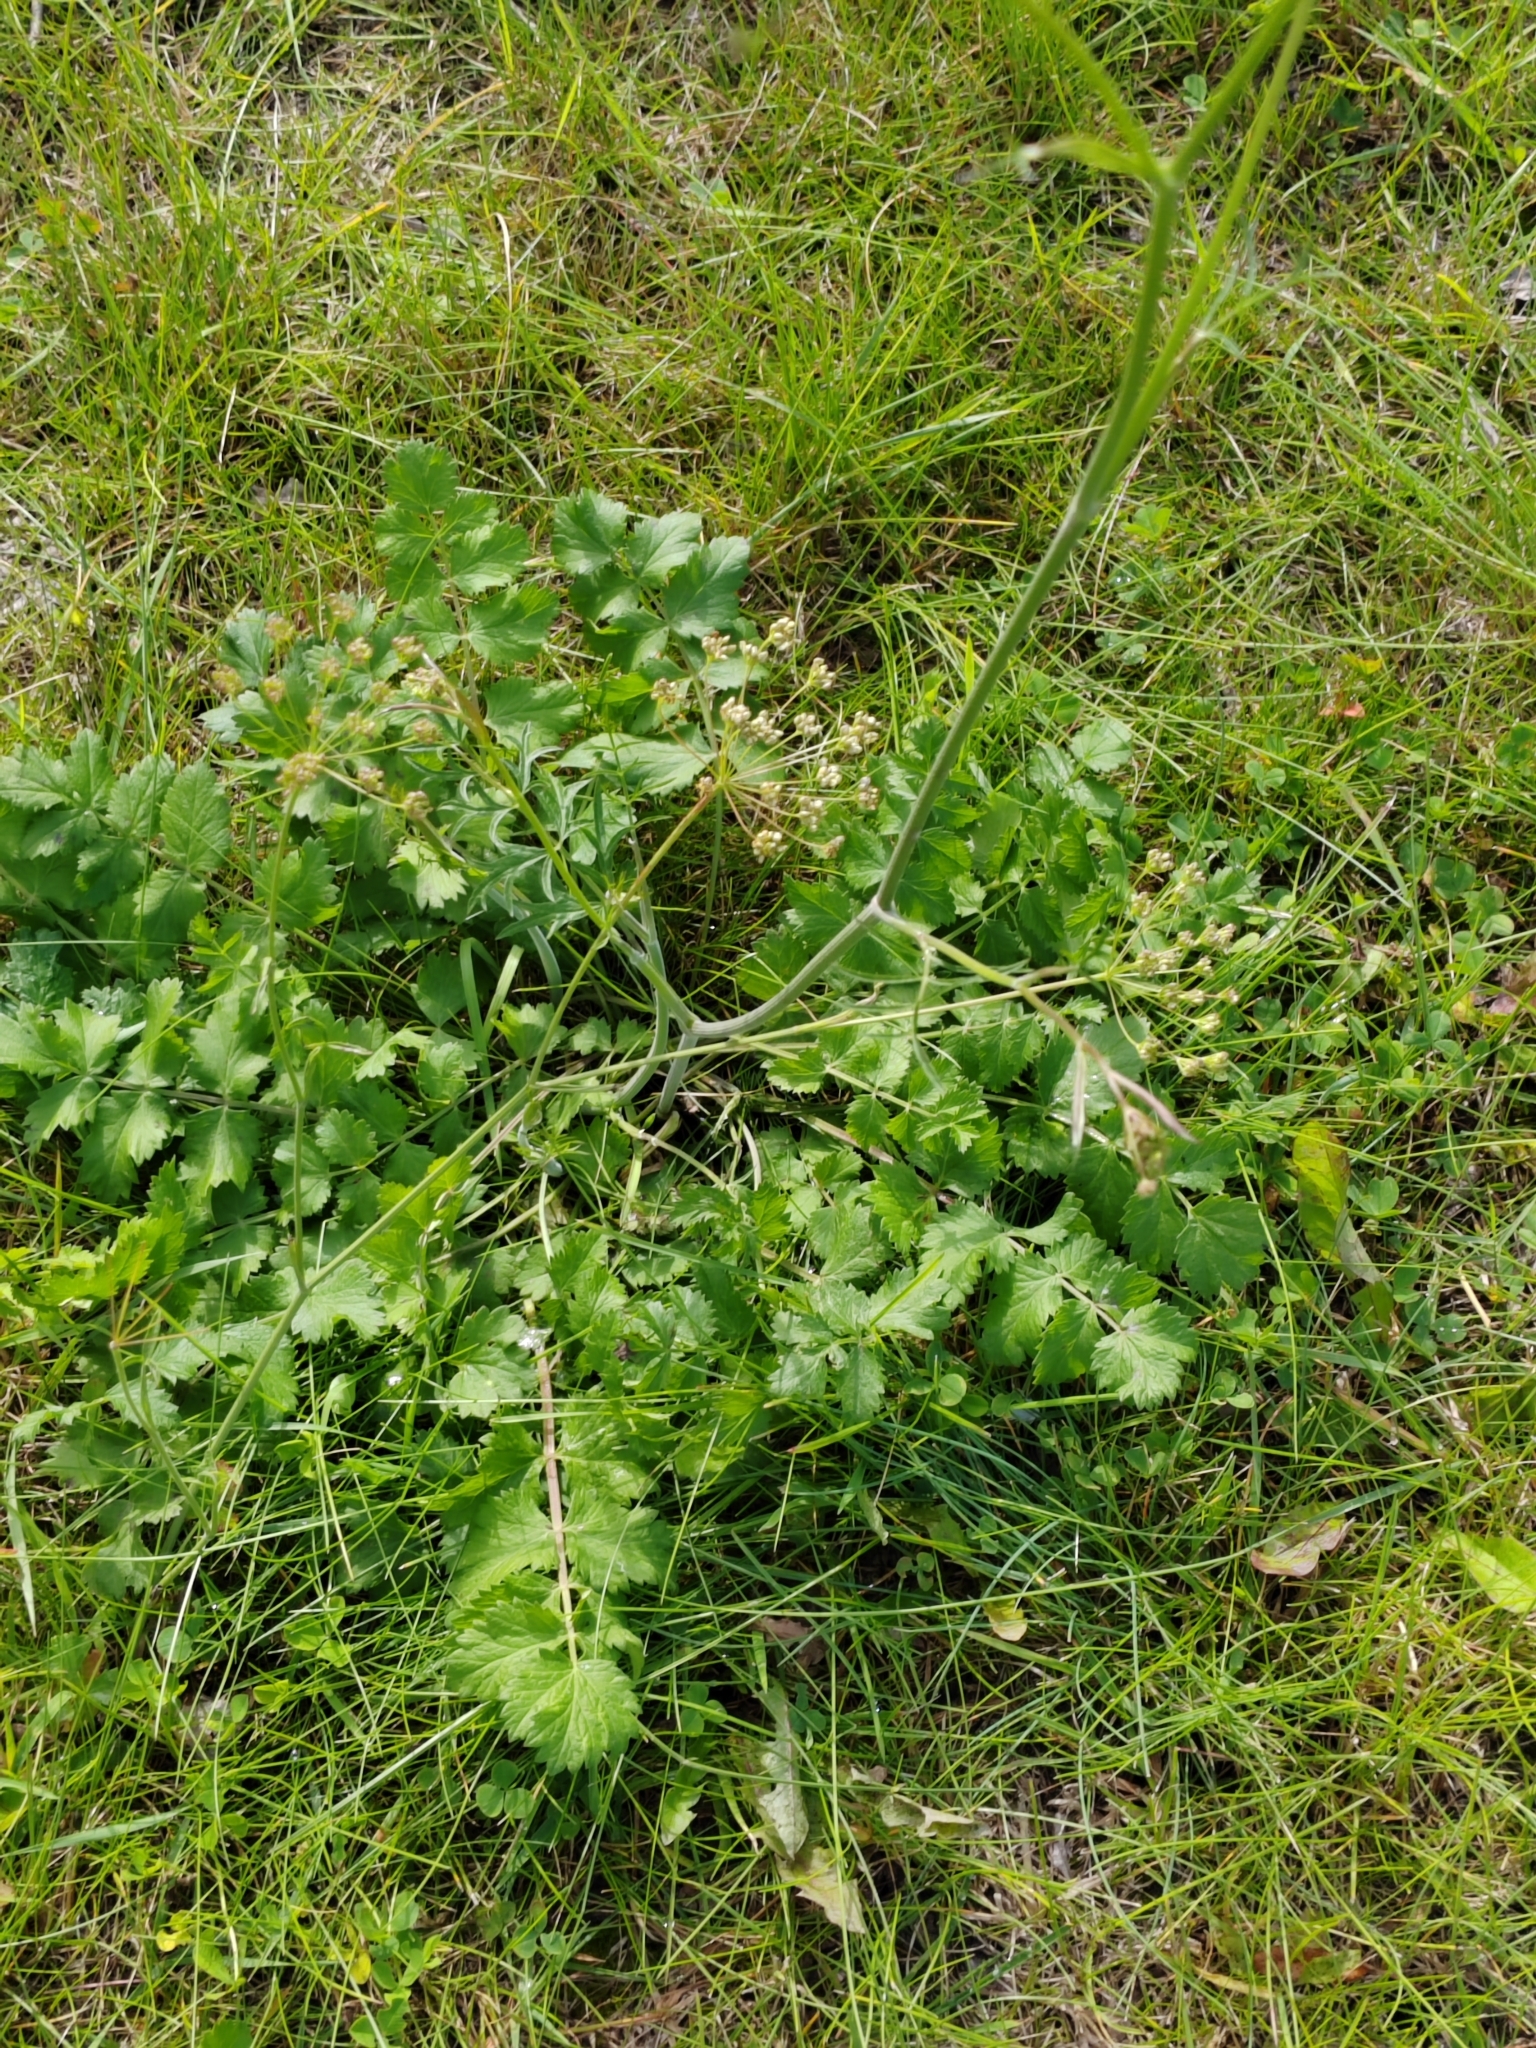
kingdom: Plantae
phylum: Tracheophyta
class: Magnoliopsida
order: Apiales
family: Apiaceae
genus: Pimpinella
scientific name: Pimpinella saxifraga
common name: Burnet-saxifrage
